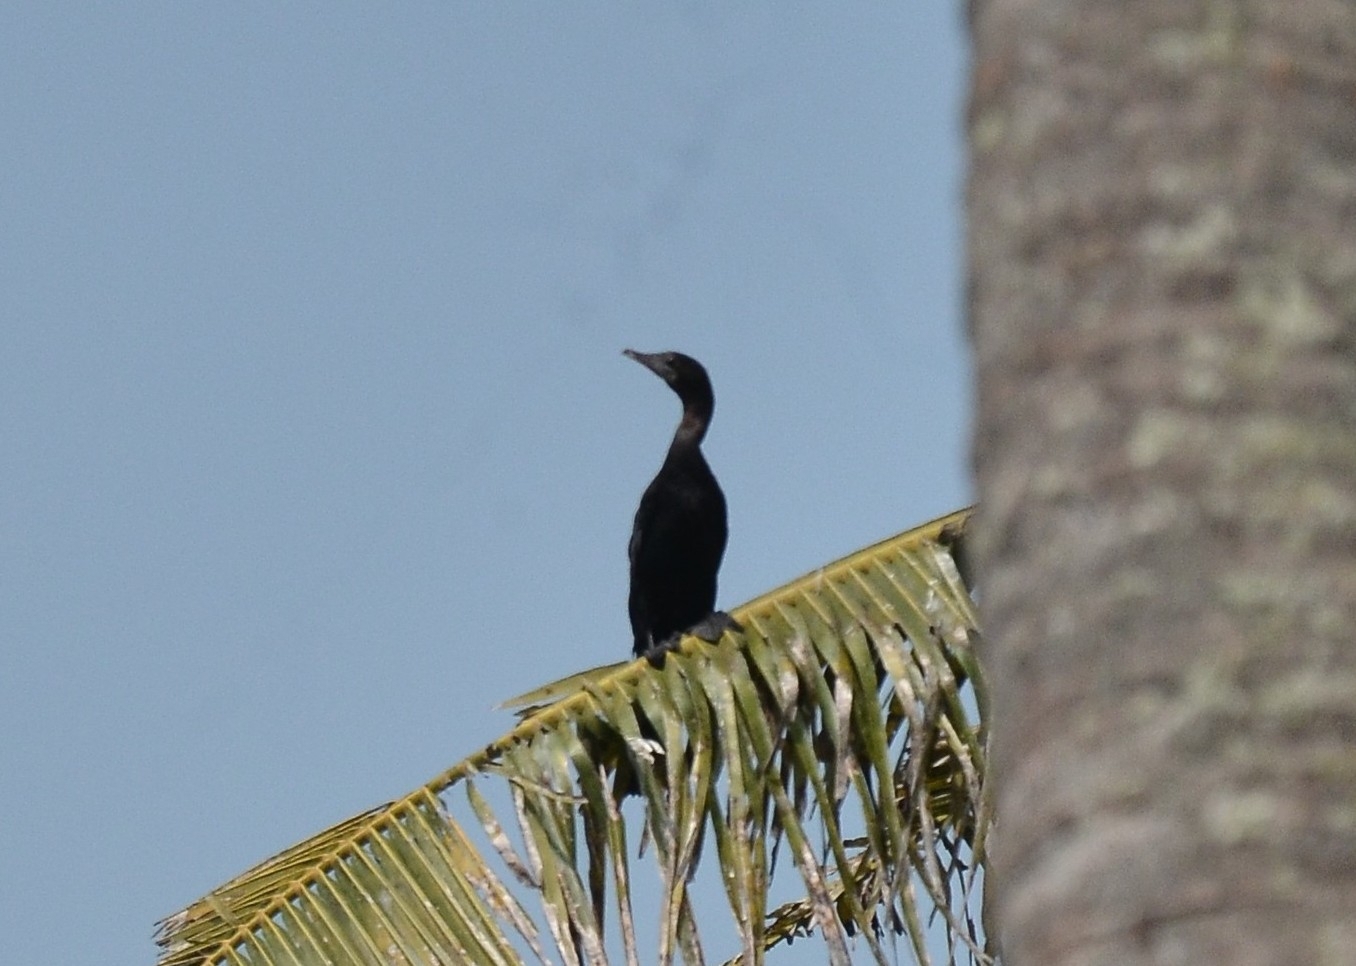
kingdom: Animalia
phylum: Chordata
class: Aves
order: Suliformes
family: Phalacrocoracidae
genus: Microcarbo
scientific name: Microcarbo niger
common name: Little cormorant
